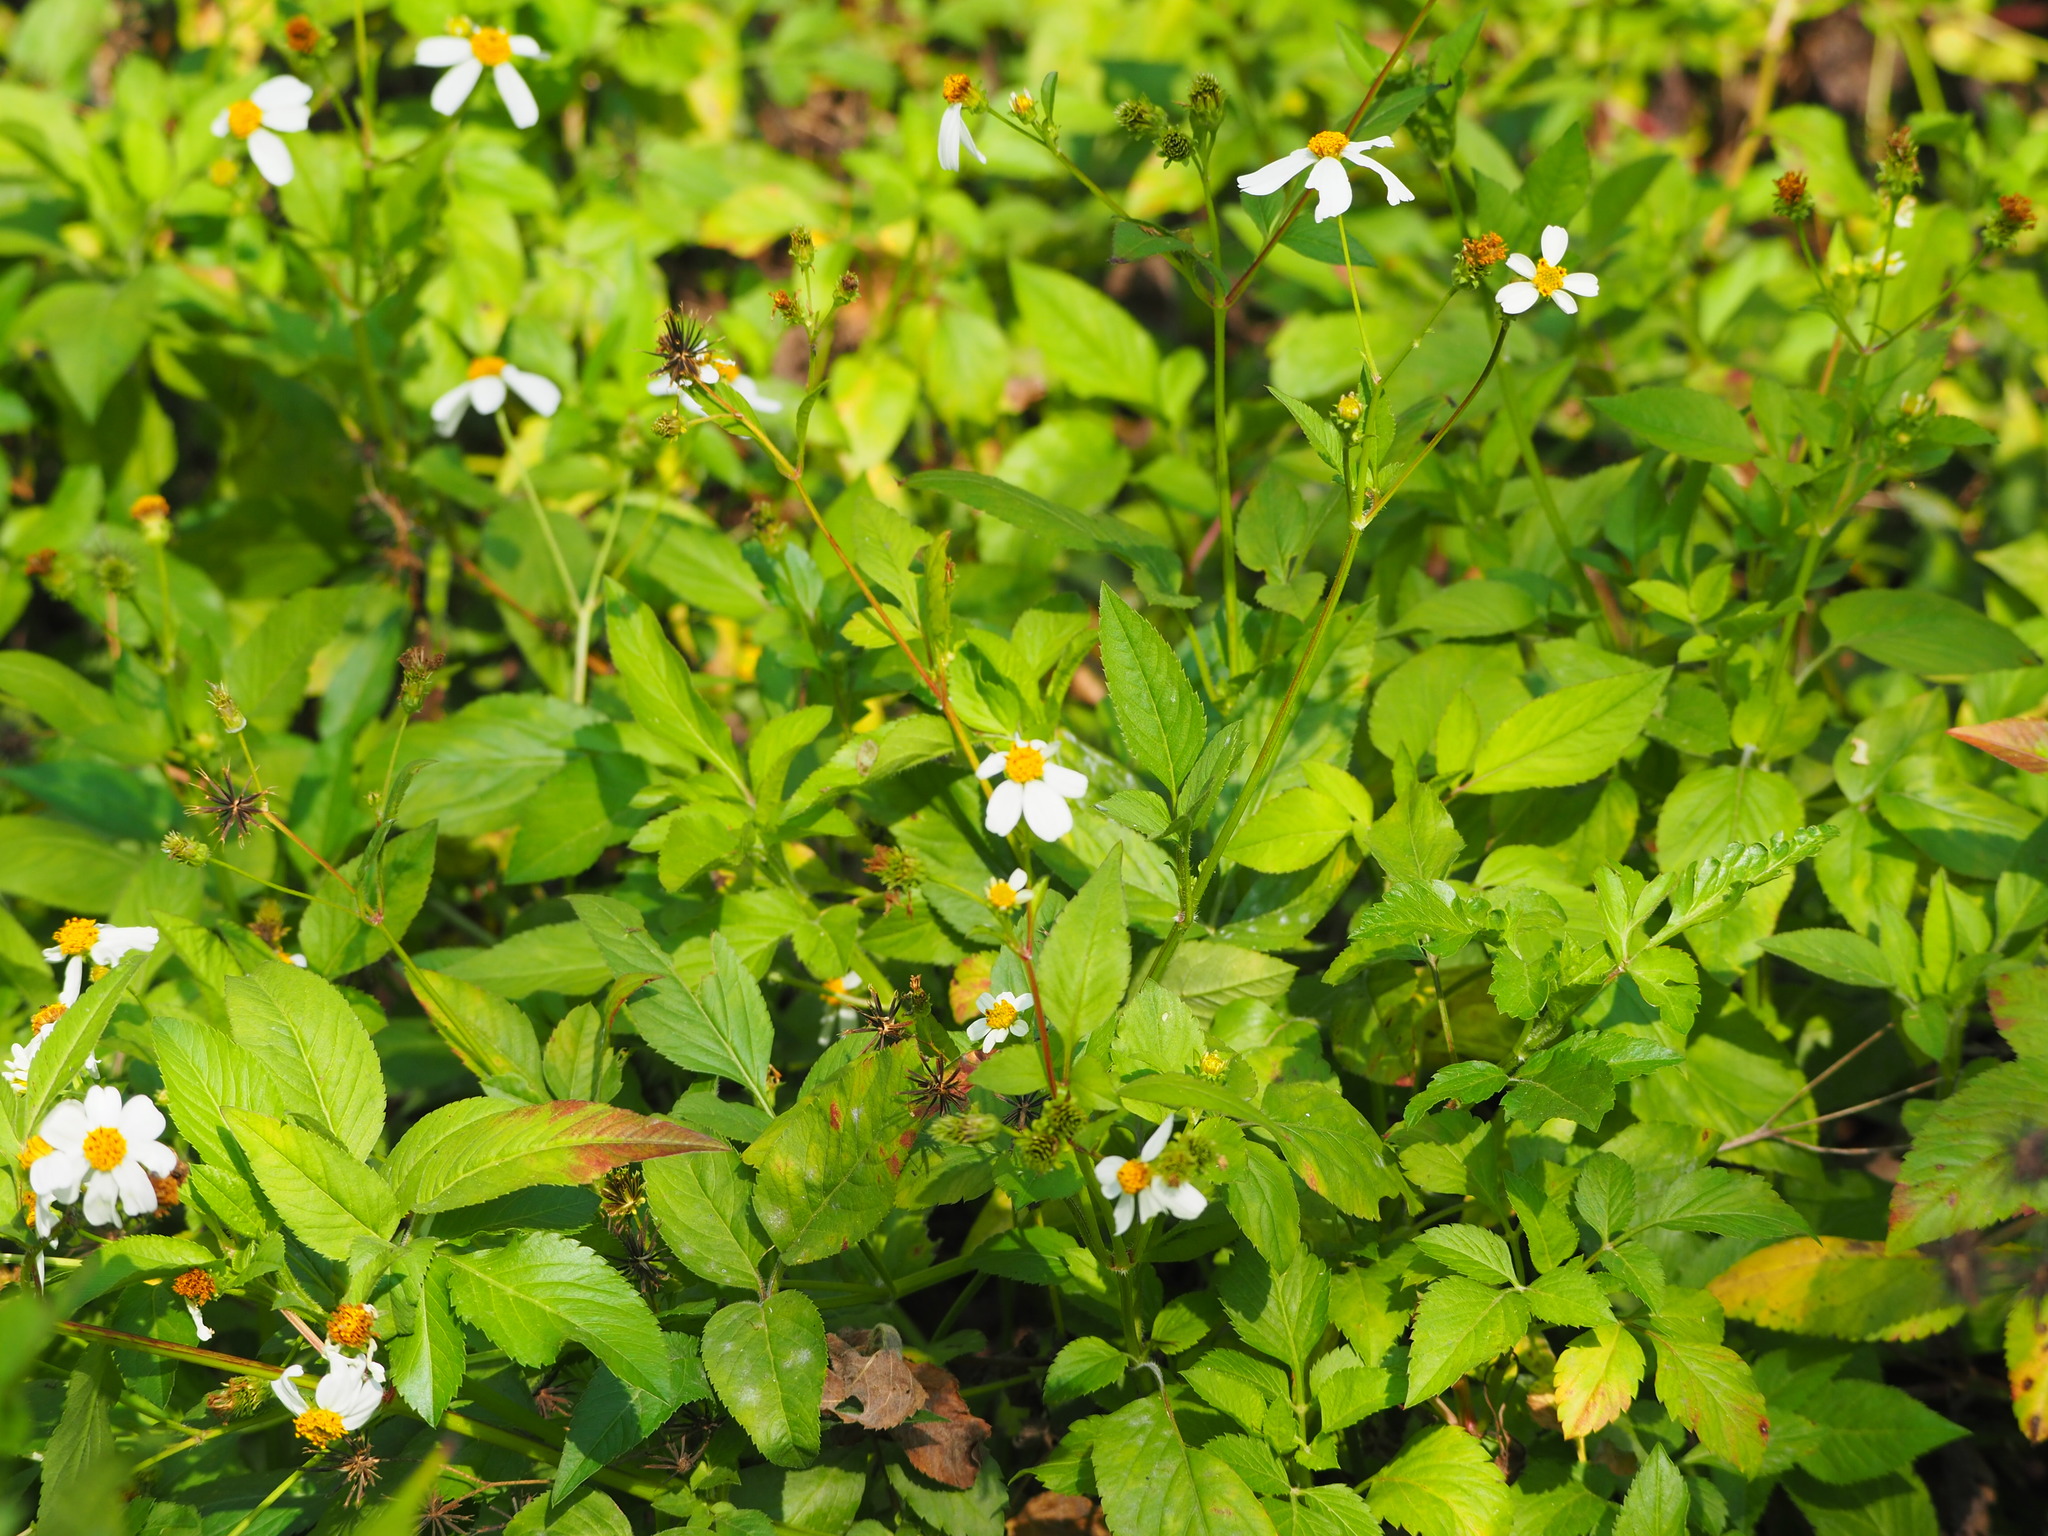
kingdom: Plantae
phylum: Tracheophyta
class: Magnoliopsida
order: Asterales
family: Asteraceae
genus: Bidens
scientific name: Bidens alba
